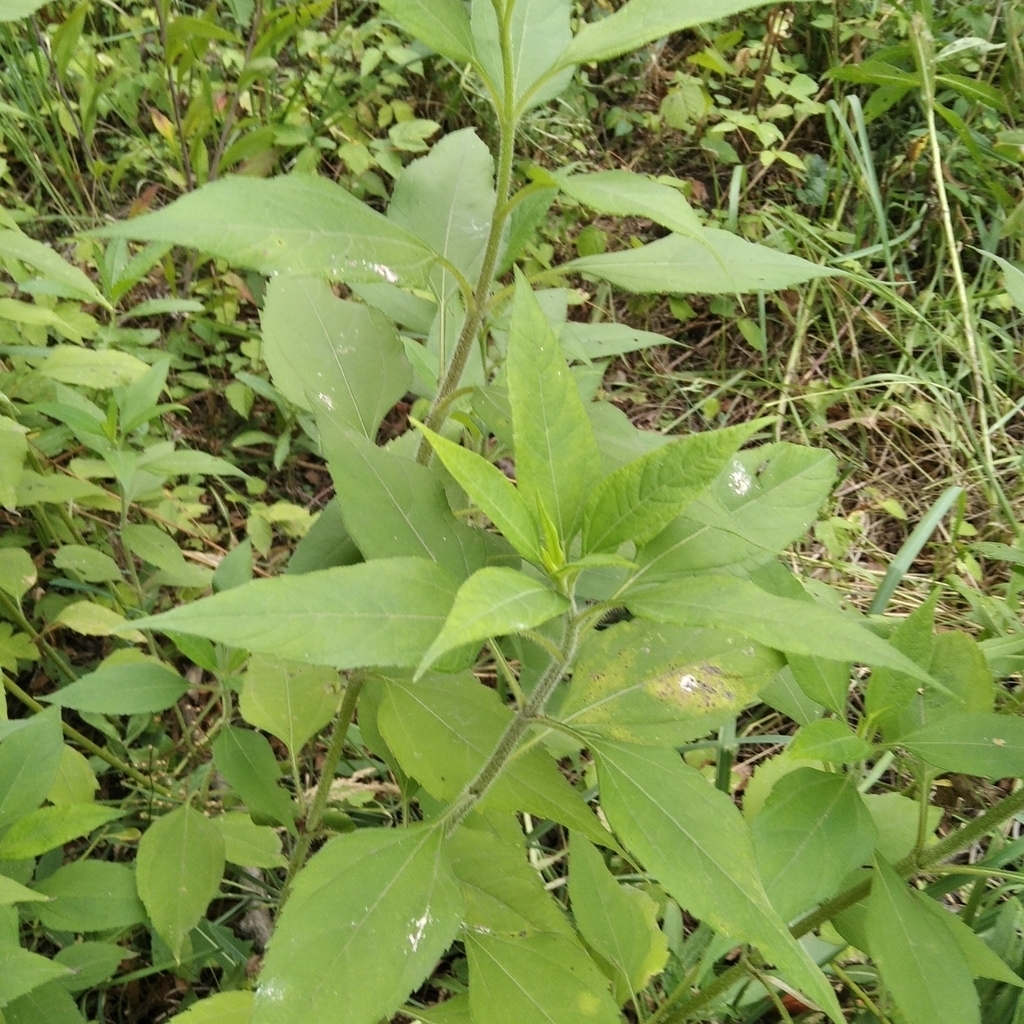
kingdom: Plantae
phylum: Tracheophyta
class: Magnoliopsida
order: Asterales
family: Asteraceae
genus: Helianthus
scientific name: Helianthus tuberosus
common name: Jerusalem artichoke
